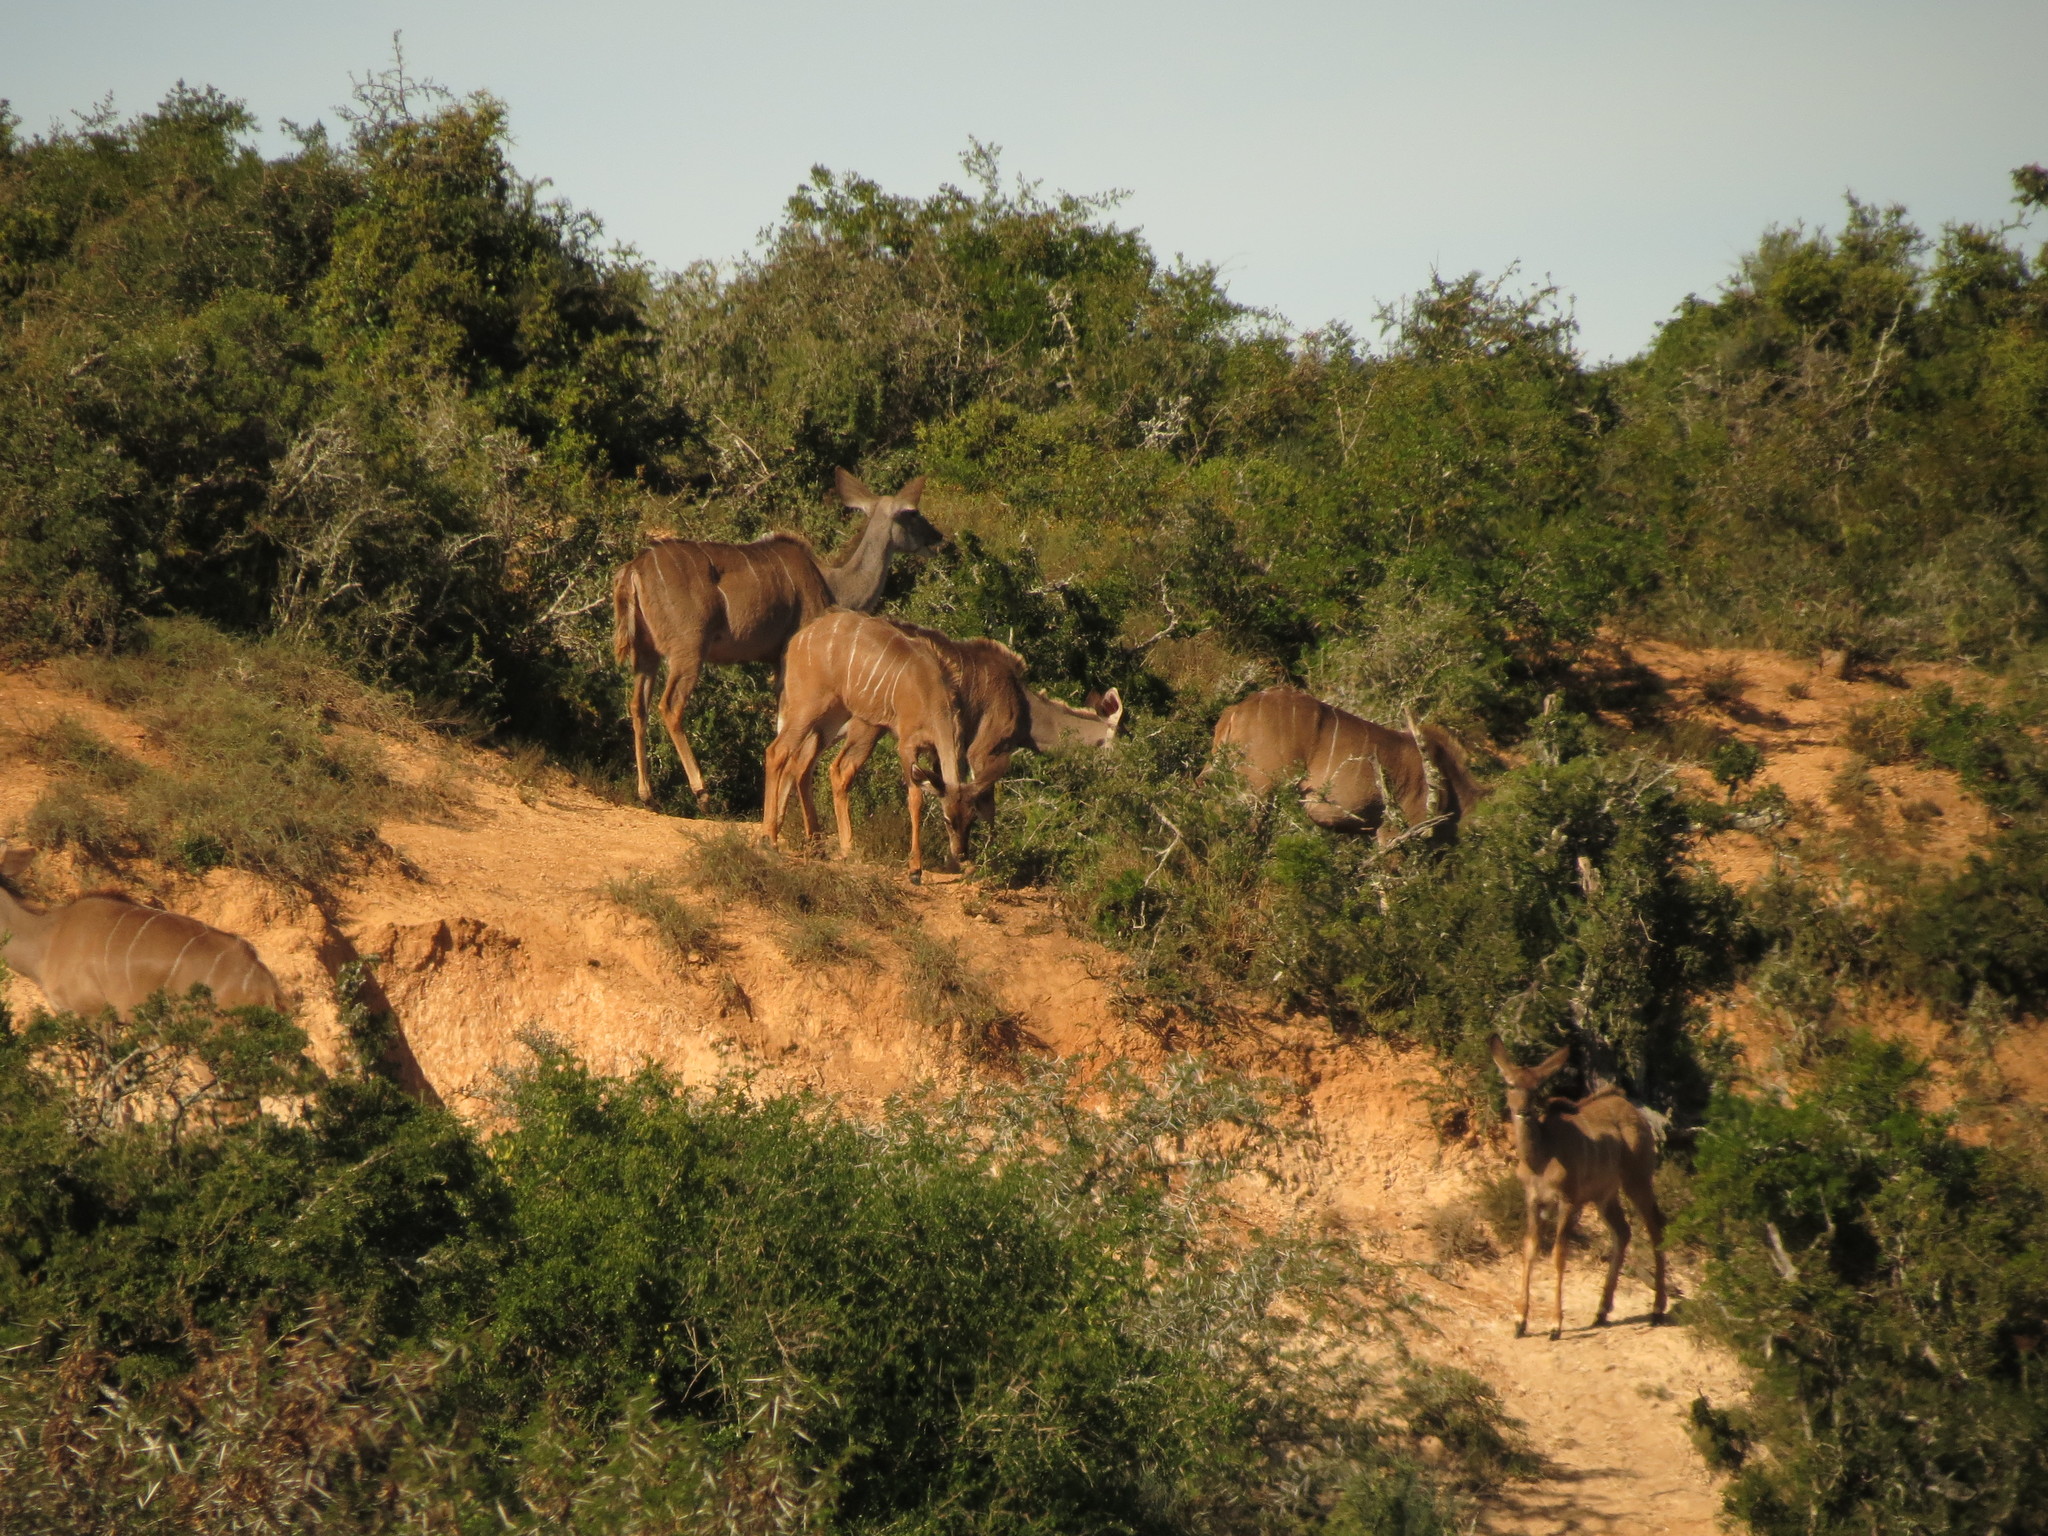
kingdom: Animalia
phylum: Chordata
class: Mammalia
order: Artiodactyla
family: Bovidae
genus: Tragelaphus
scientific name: Tragelaphus strepsiceros
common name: Greater kudu
